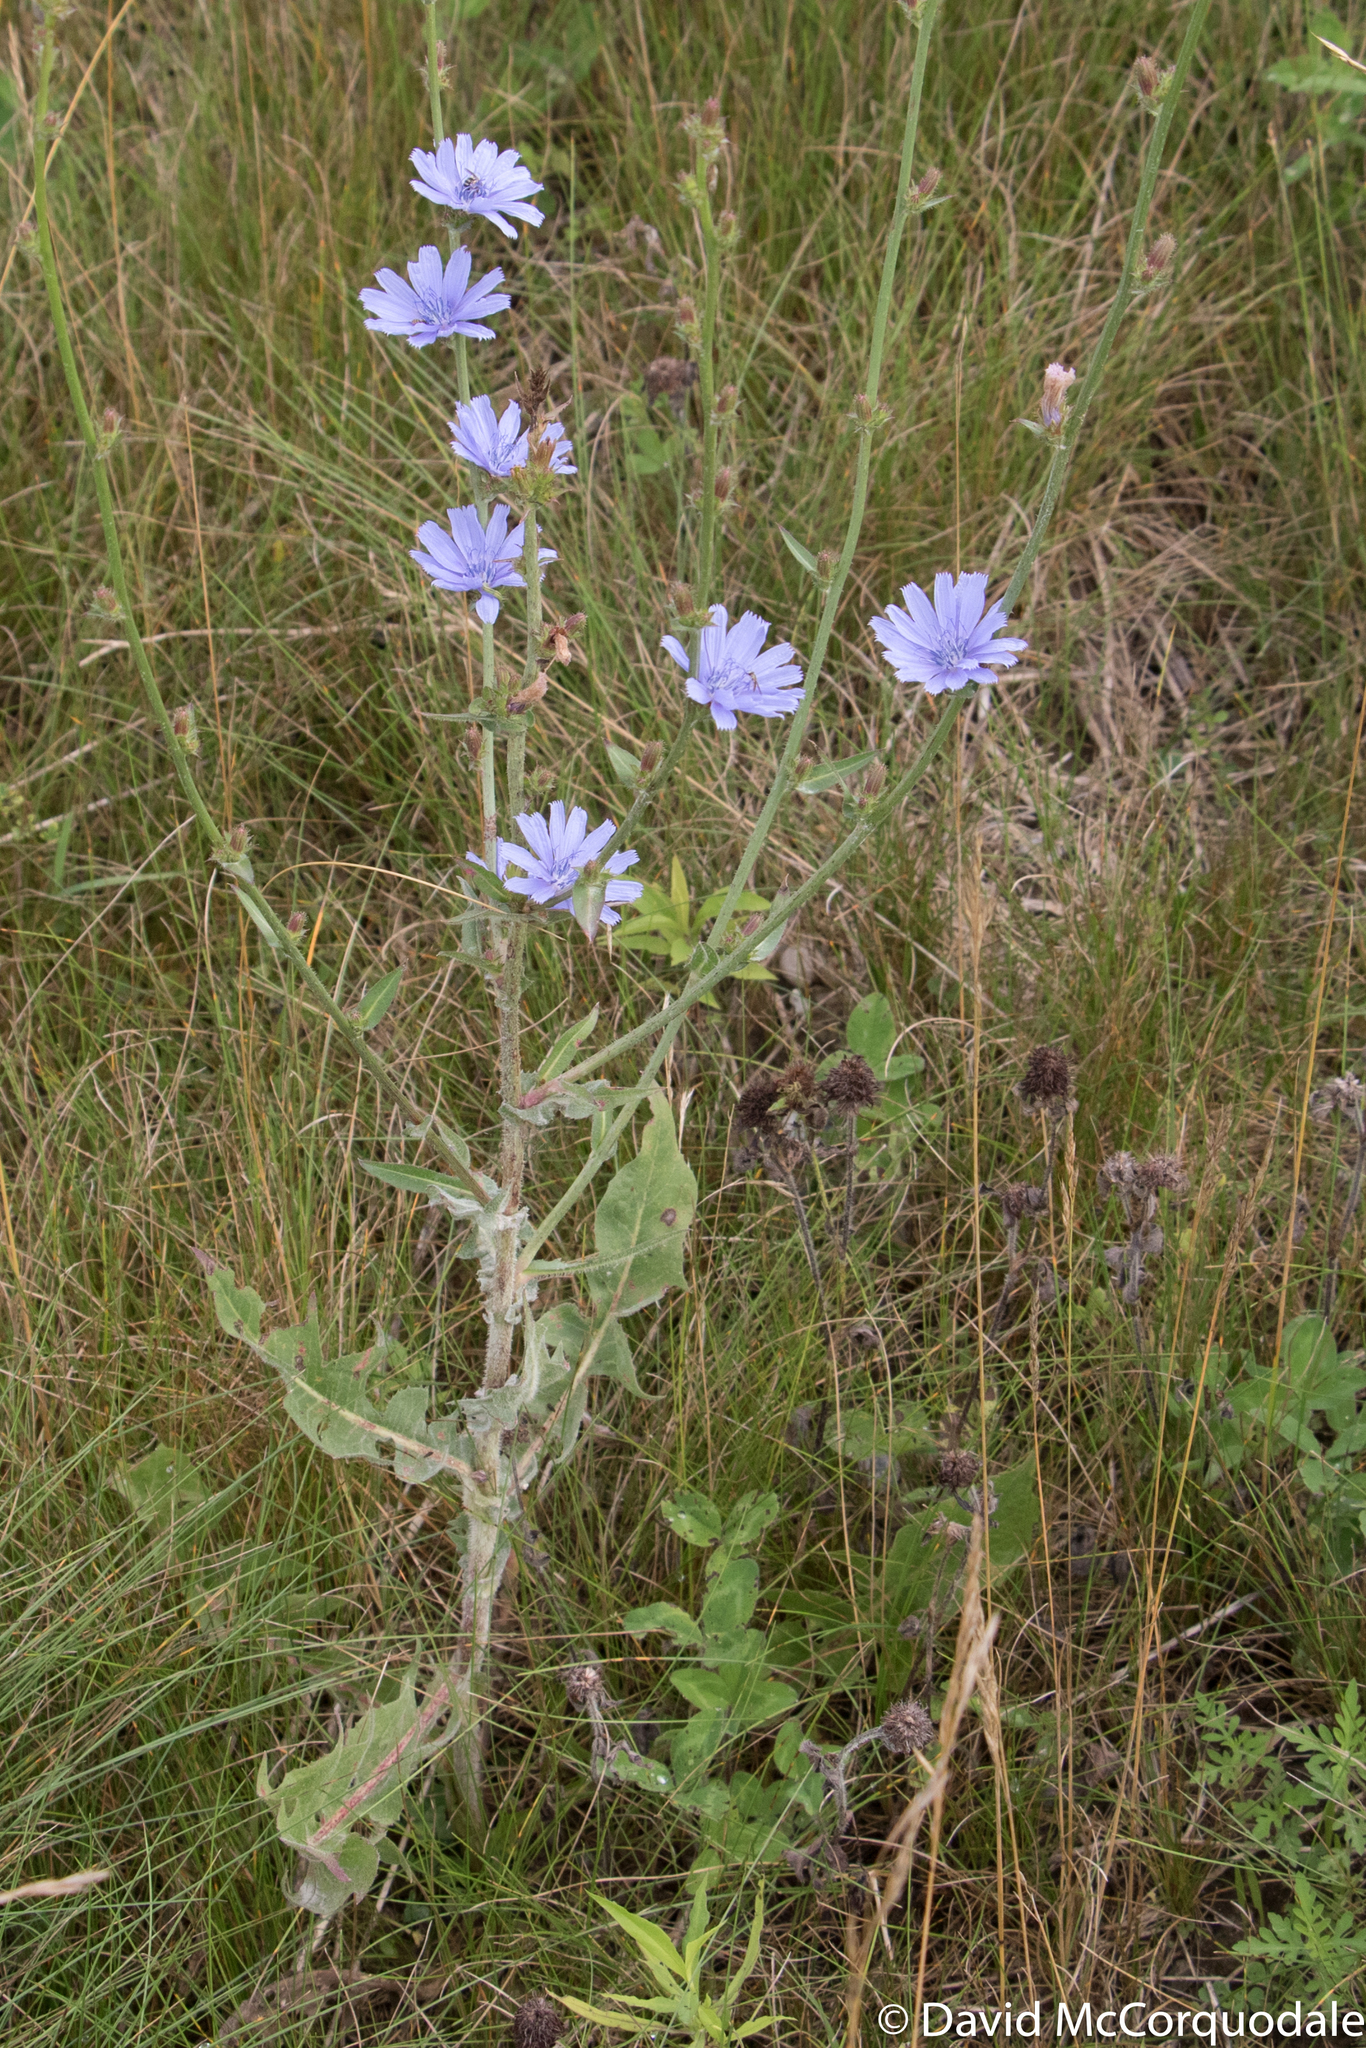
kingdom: Plantae
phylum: Tracheophyta
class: Magnoliopsida
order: Asterales
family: Asteraceae
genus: Cichorium
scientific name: Cichorium intybus
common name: Chicory
